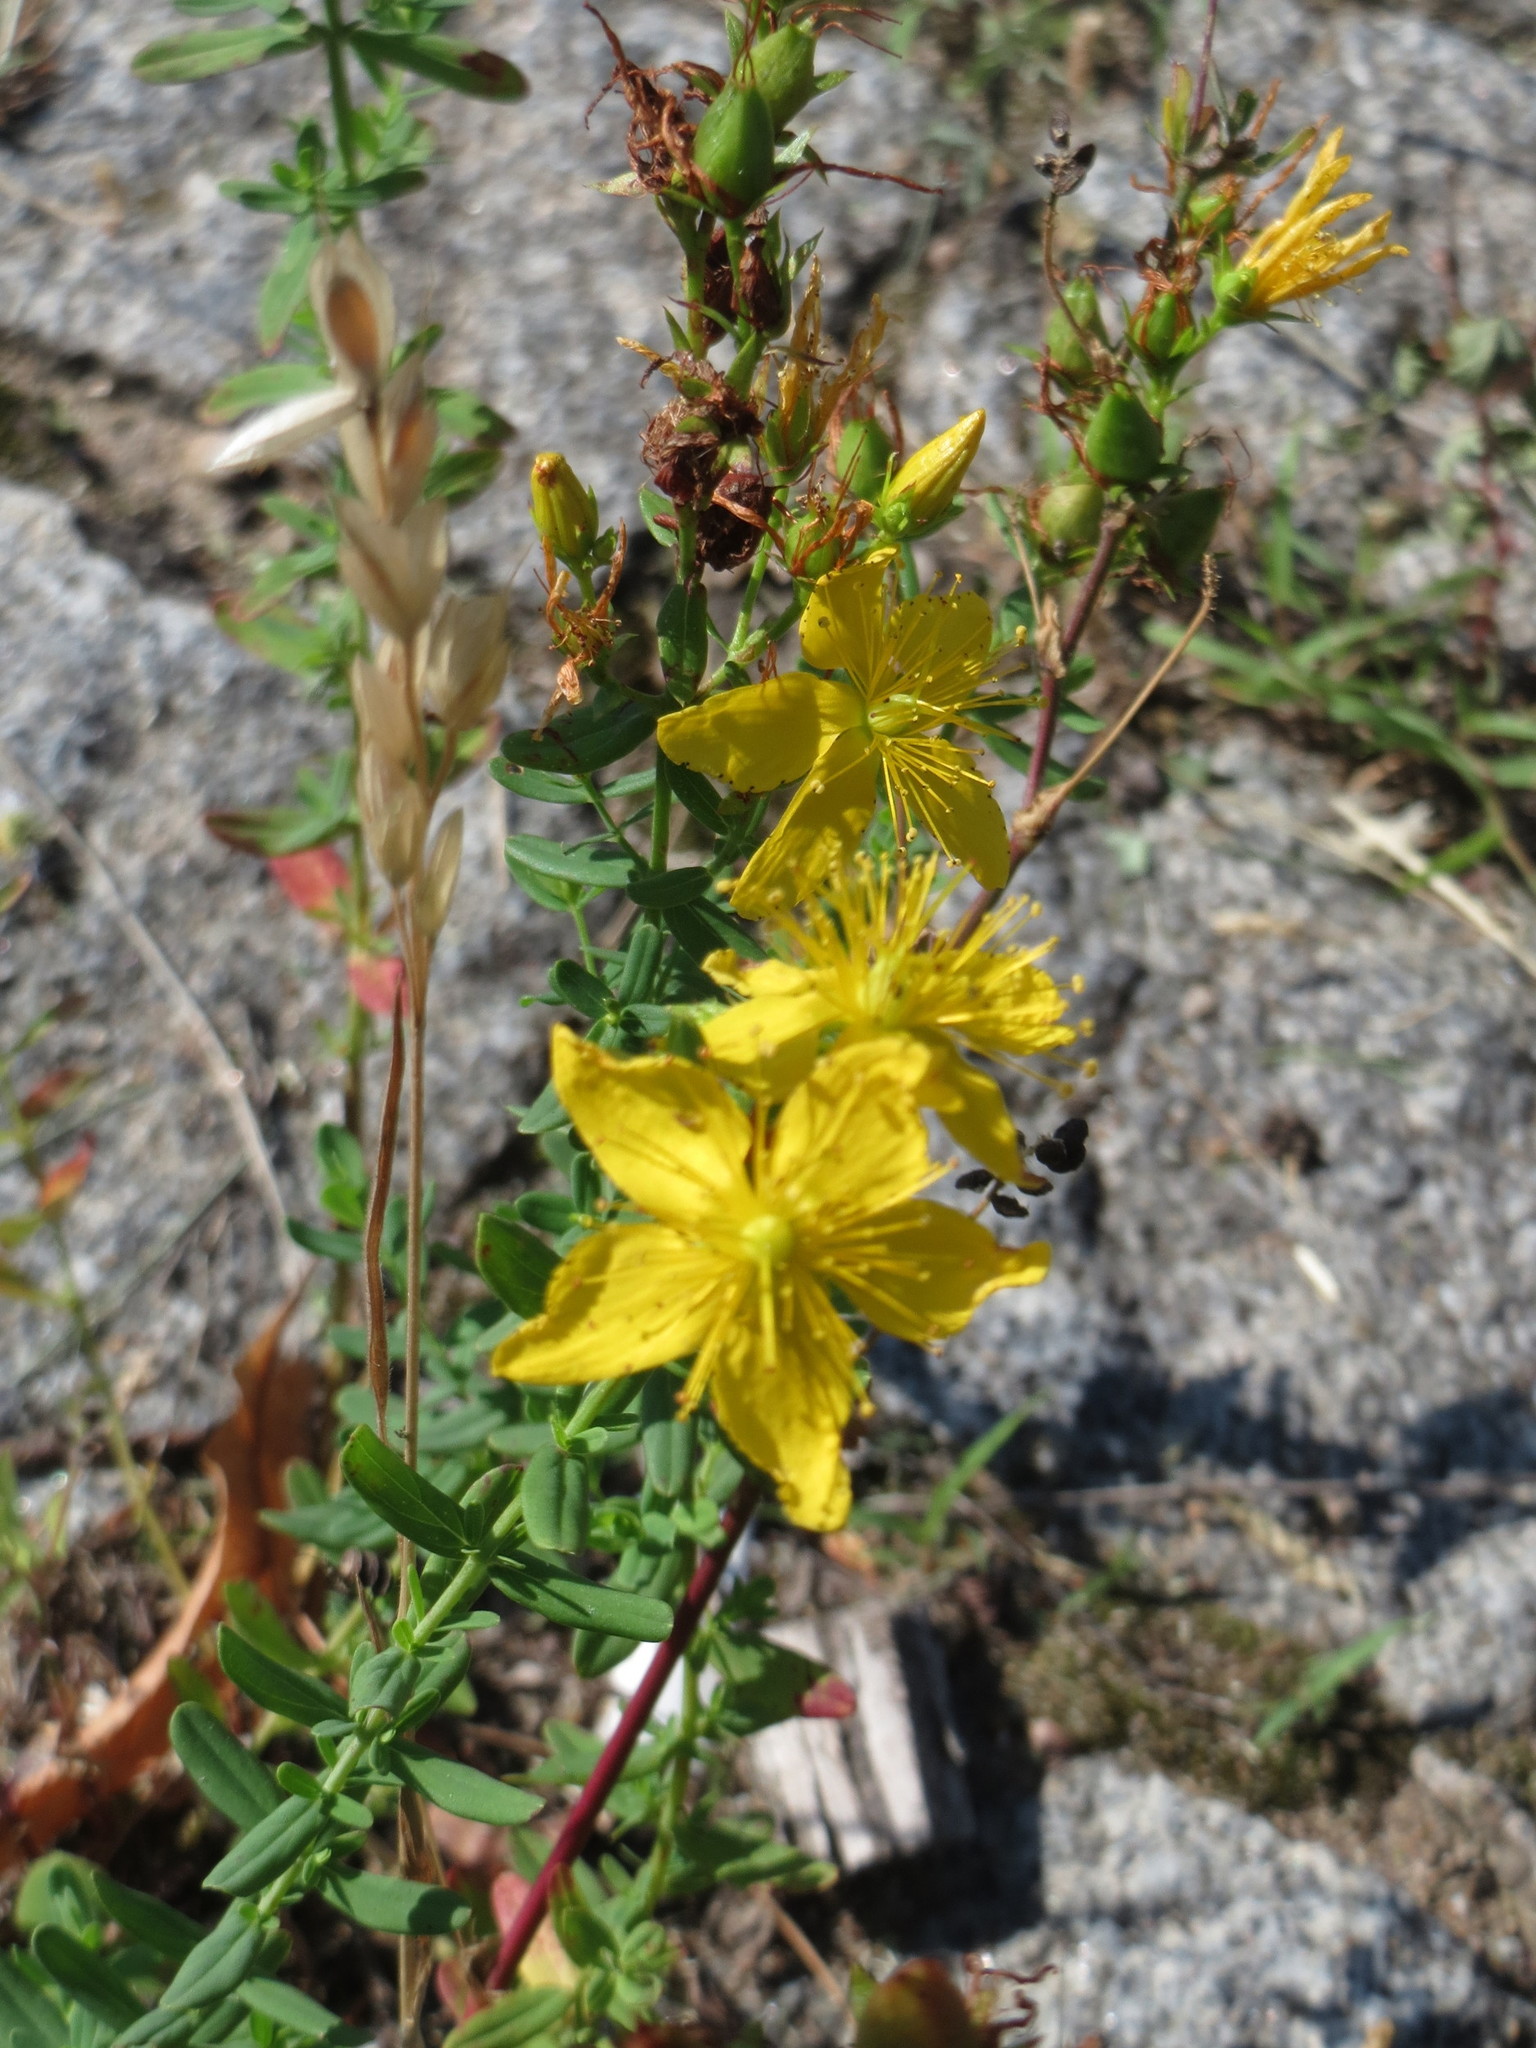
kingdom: Plantae
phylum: Tracheophyta
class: Magnoliopsida
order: Malpighiales
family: Hypericaceae
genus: Hypericum
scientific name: Hypericum perforatum
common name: Common st. johnswort
